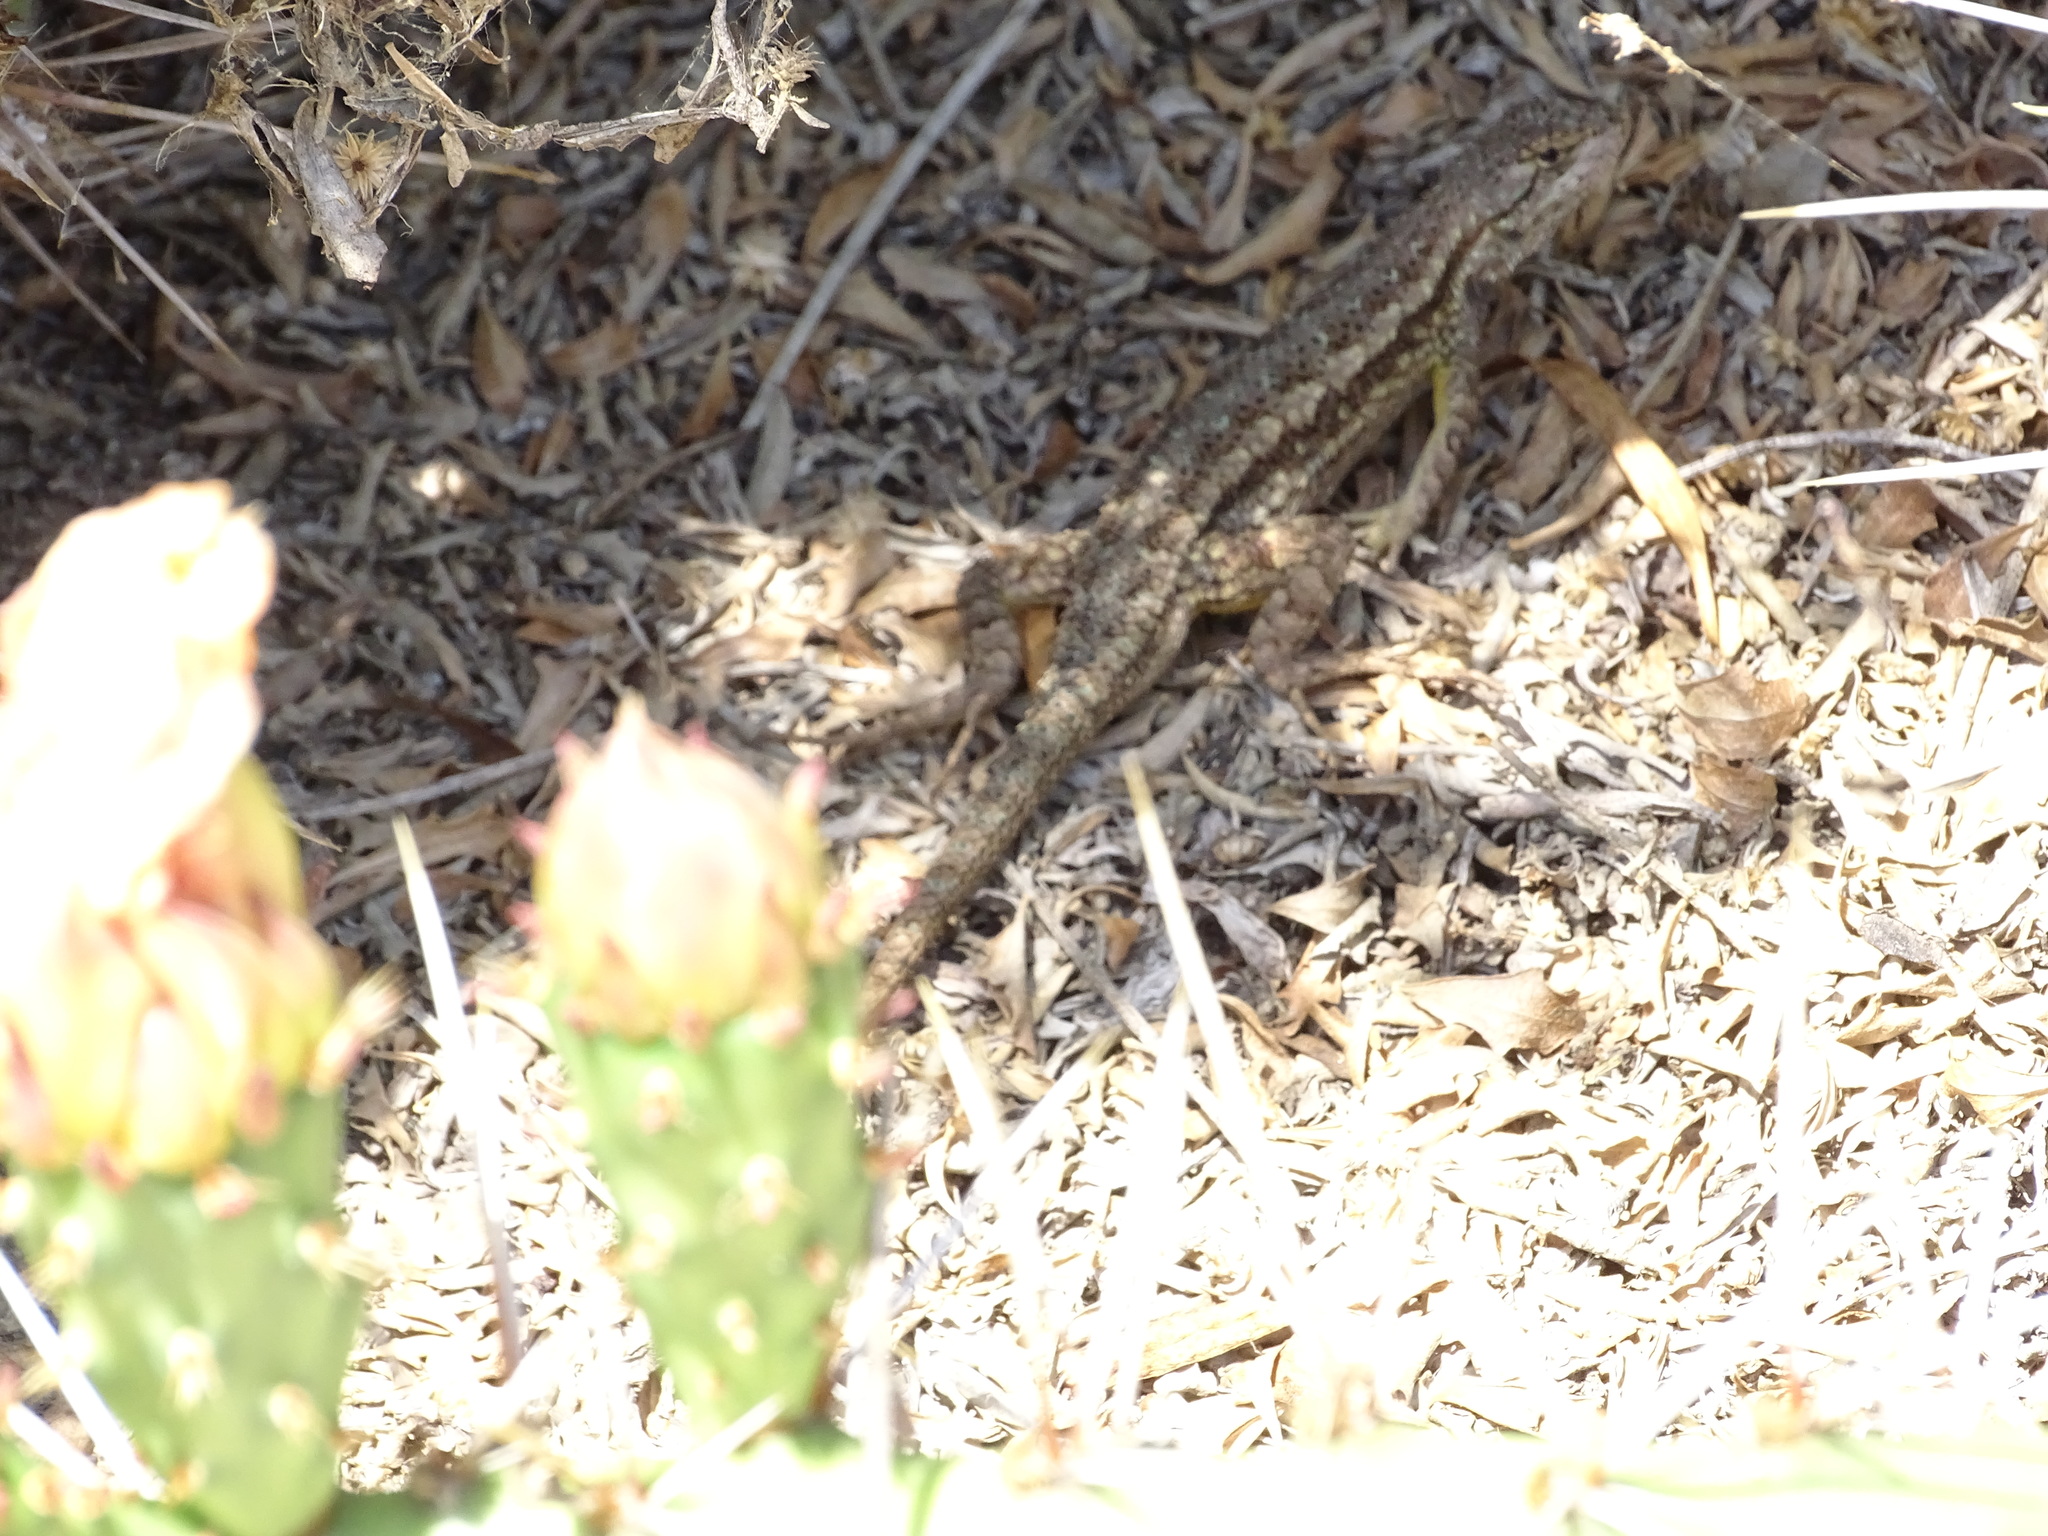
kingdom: Animalia
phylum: Chordata
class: Squamata
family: Phrynosomatidae
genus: Sceloporus
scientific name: Sceloporus occidentalis
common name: Western fence lizard
